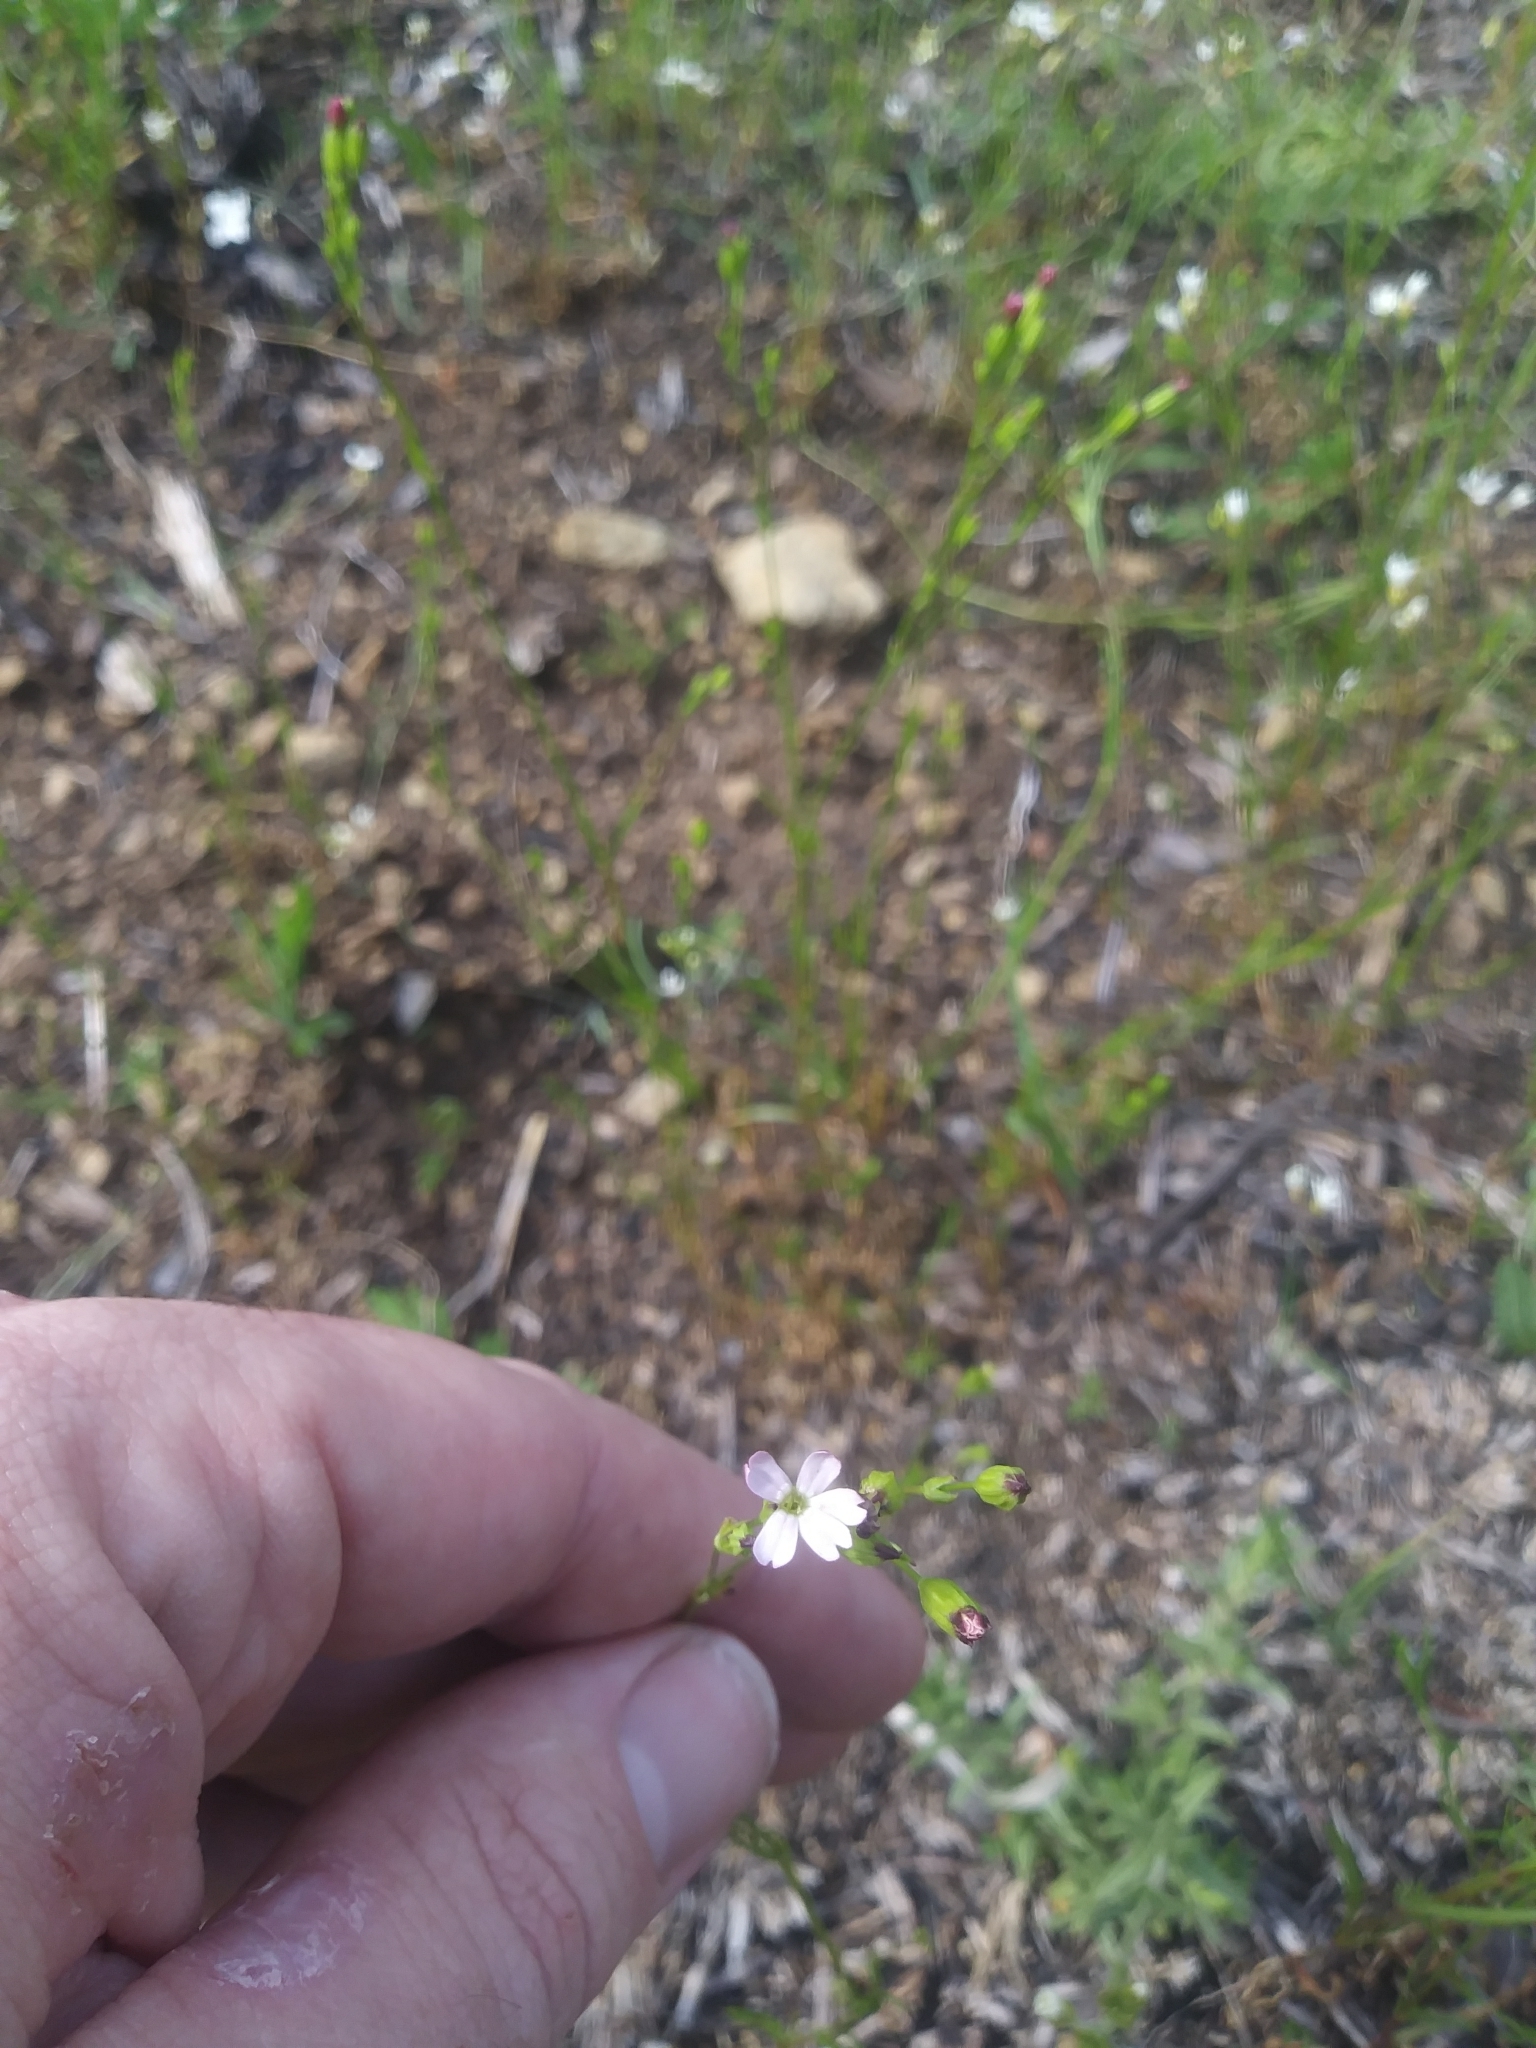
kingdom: Plantae
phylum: Tracheophyta
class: Magnoliopsida
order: Caryophyllales
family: Caryophyllaceae
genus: Silene
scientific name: Silene antirrhina
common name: Sleepy catchfly
